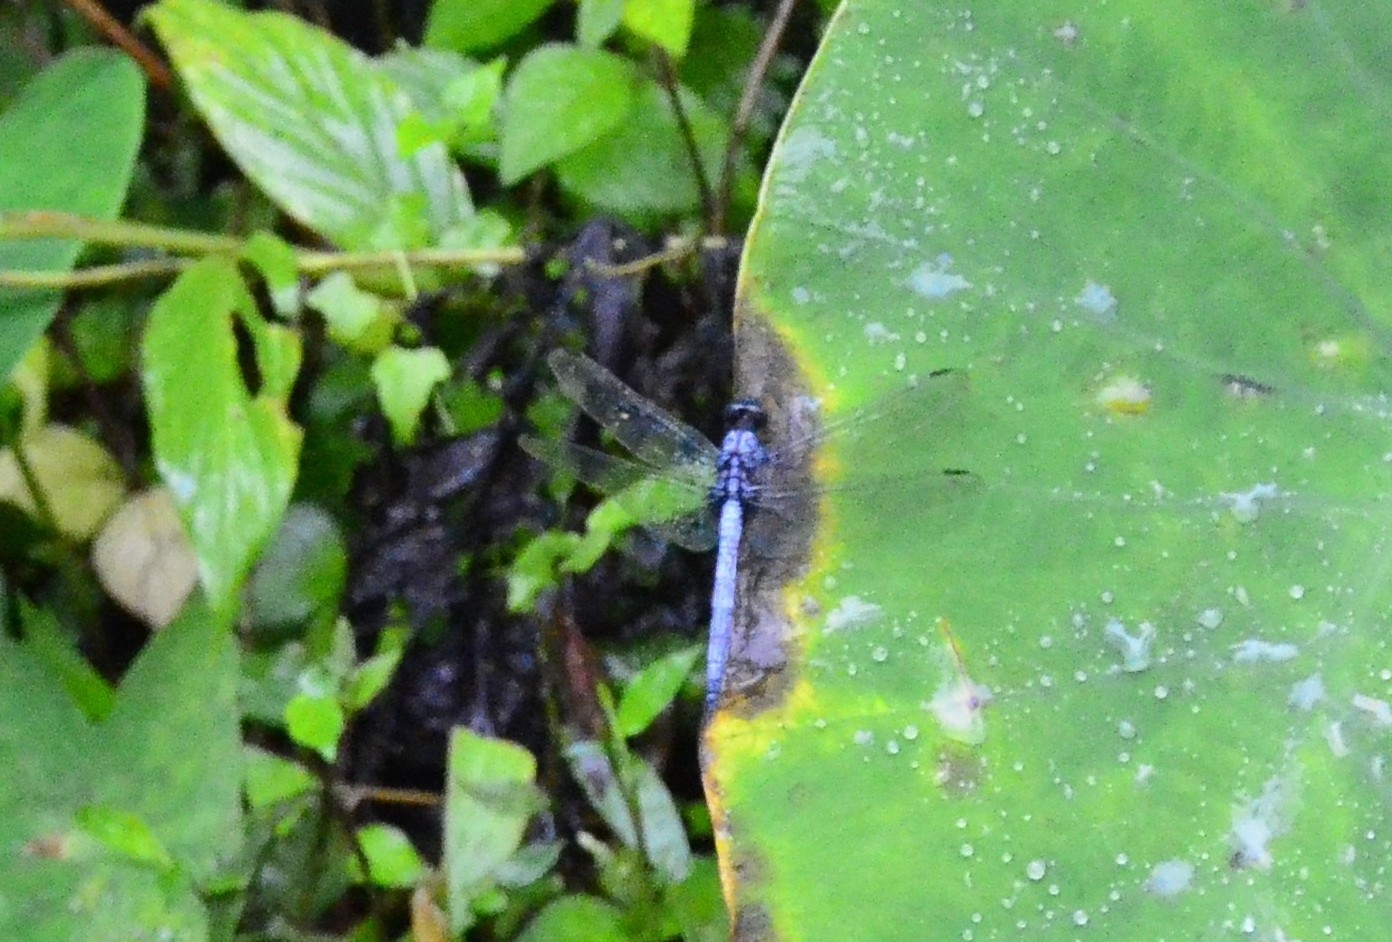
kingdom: Animalia
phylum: Arthropoda
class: Insecta
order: Odonata
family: Libellulidae
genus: Orthetrum
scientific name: Orthetrum glaucum
